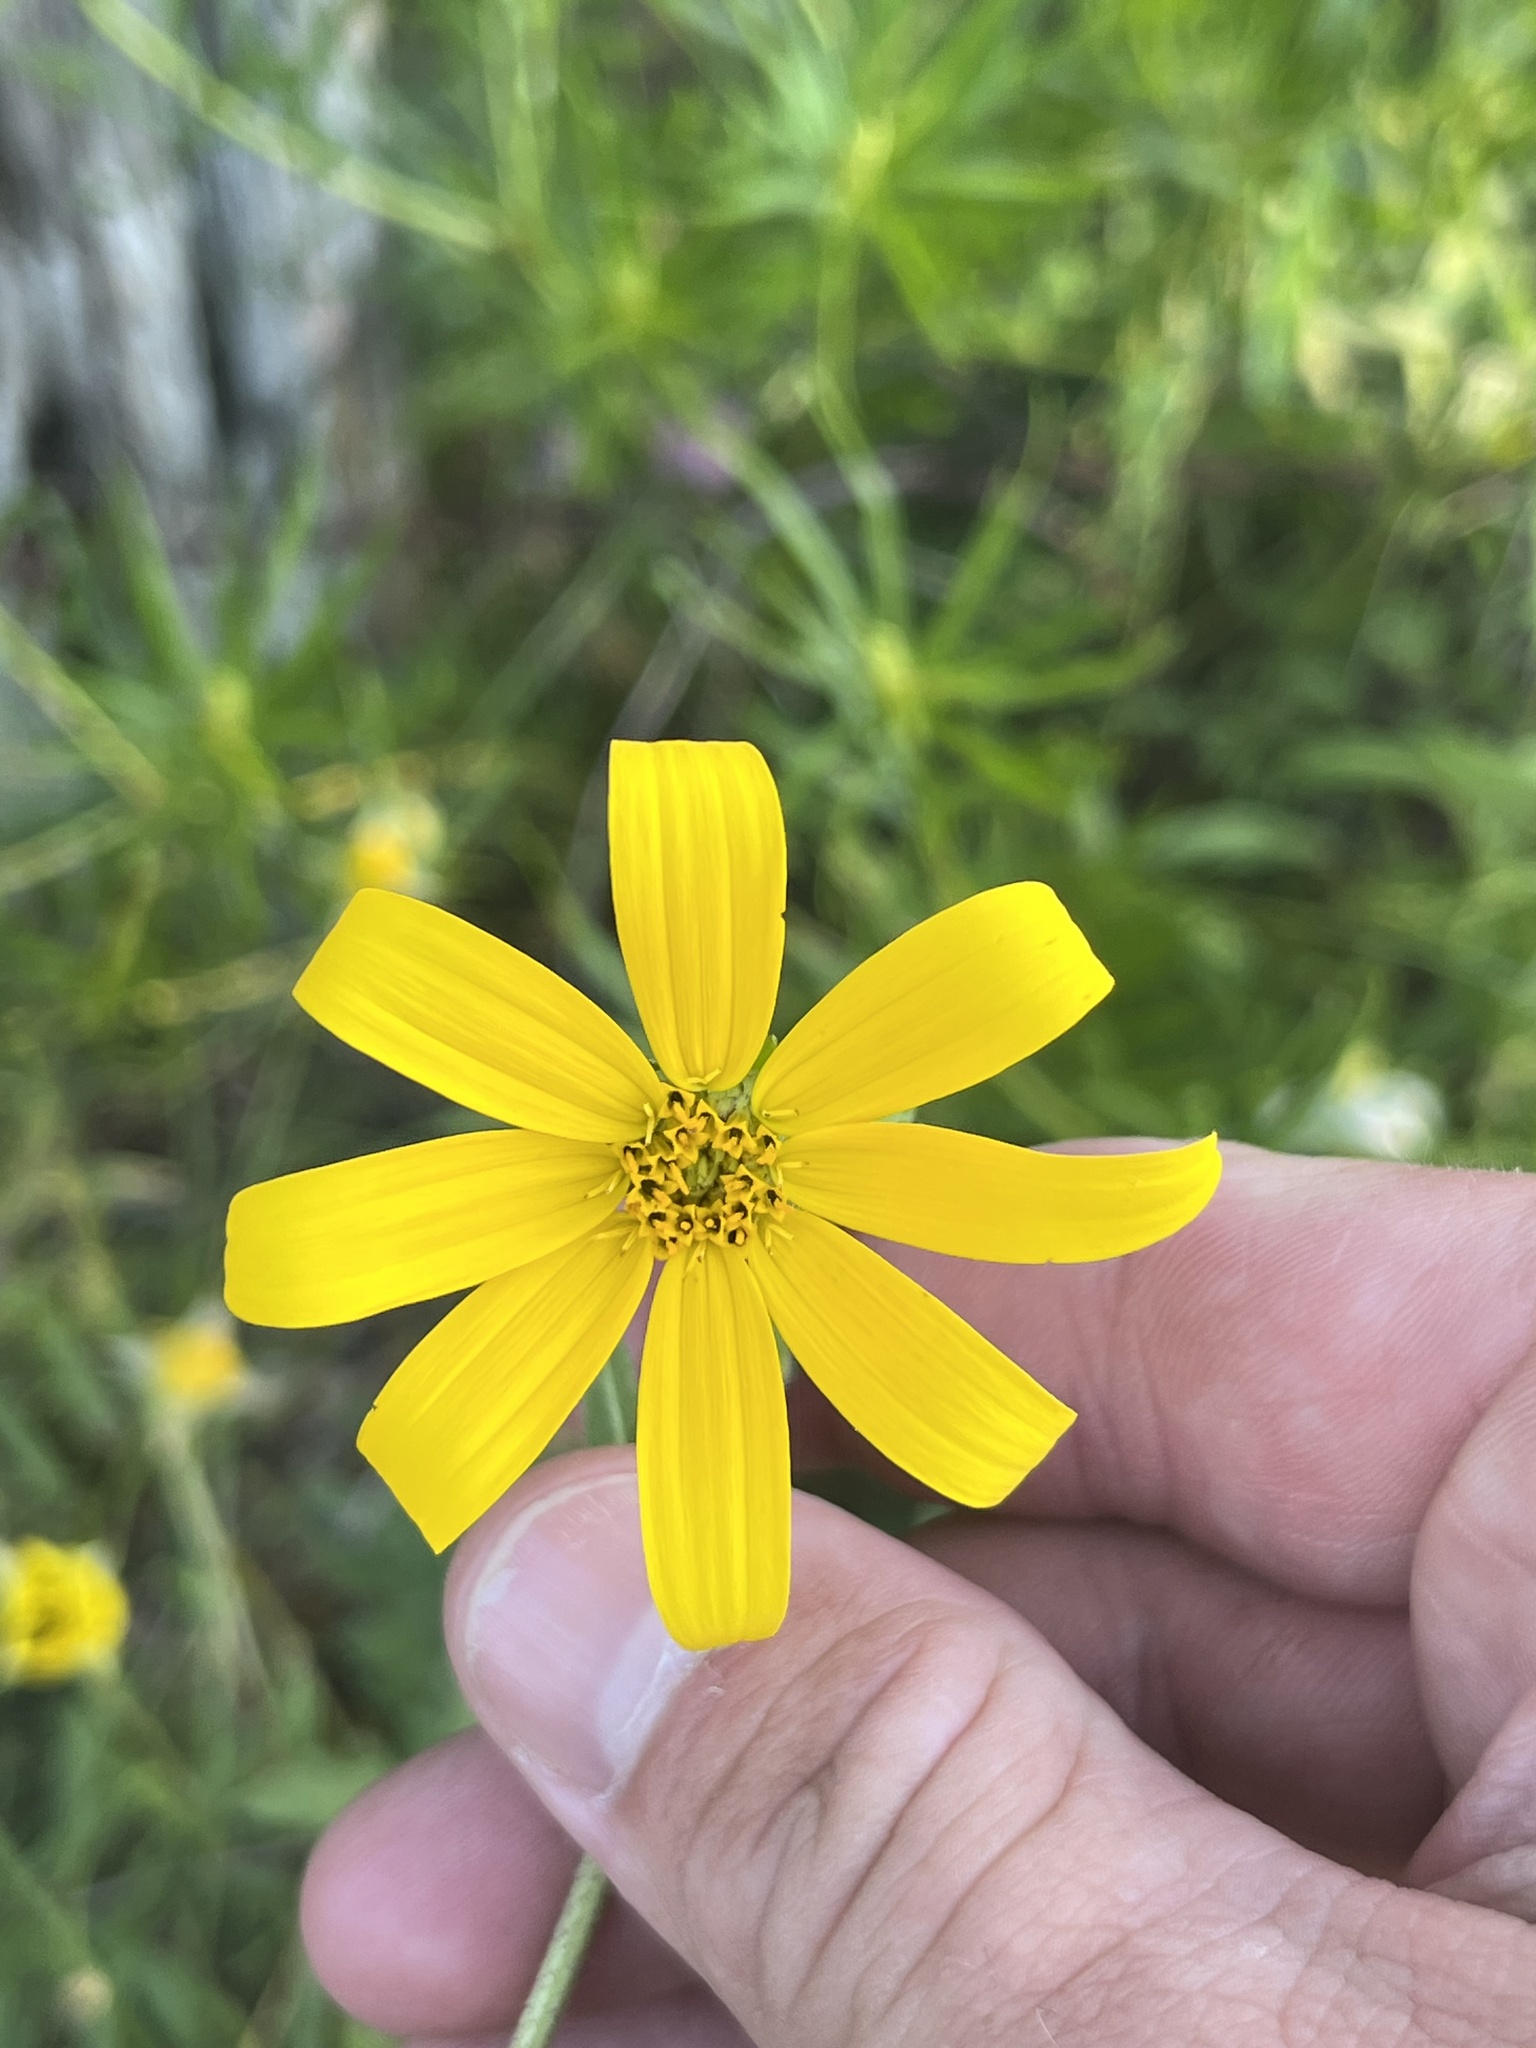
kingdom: Plantae
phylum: Tracheophyta
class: Magnoliopsida
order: Asterales
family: Asteraceae
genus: Engelmannia
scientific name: Engelmannia peristenia
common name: Engelmann's daisy
